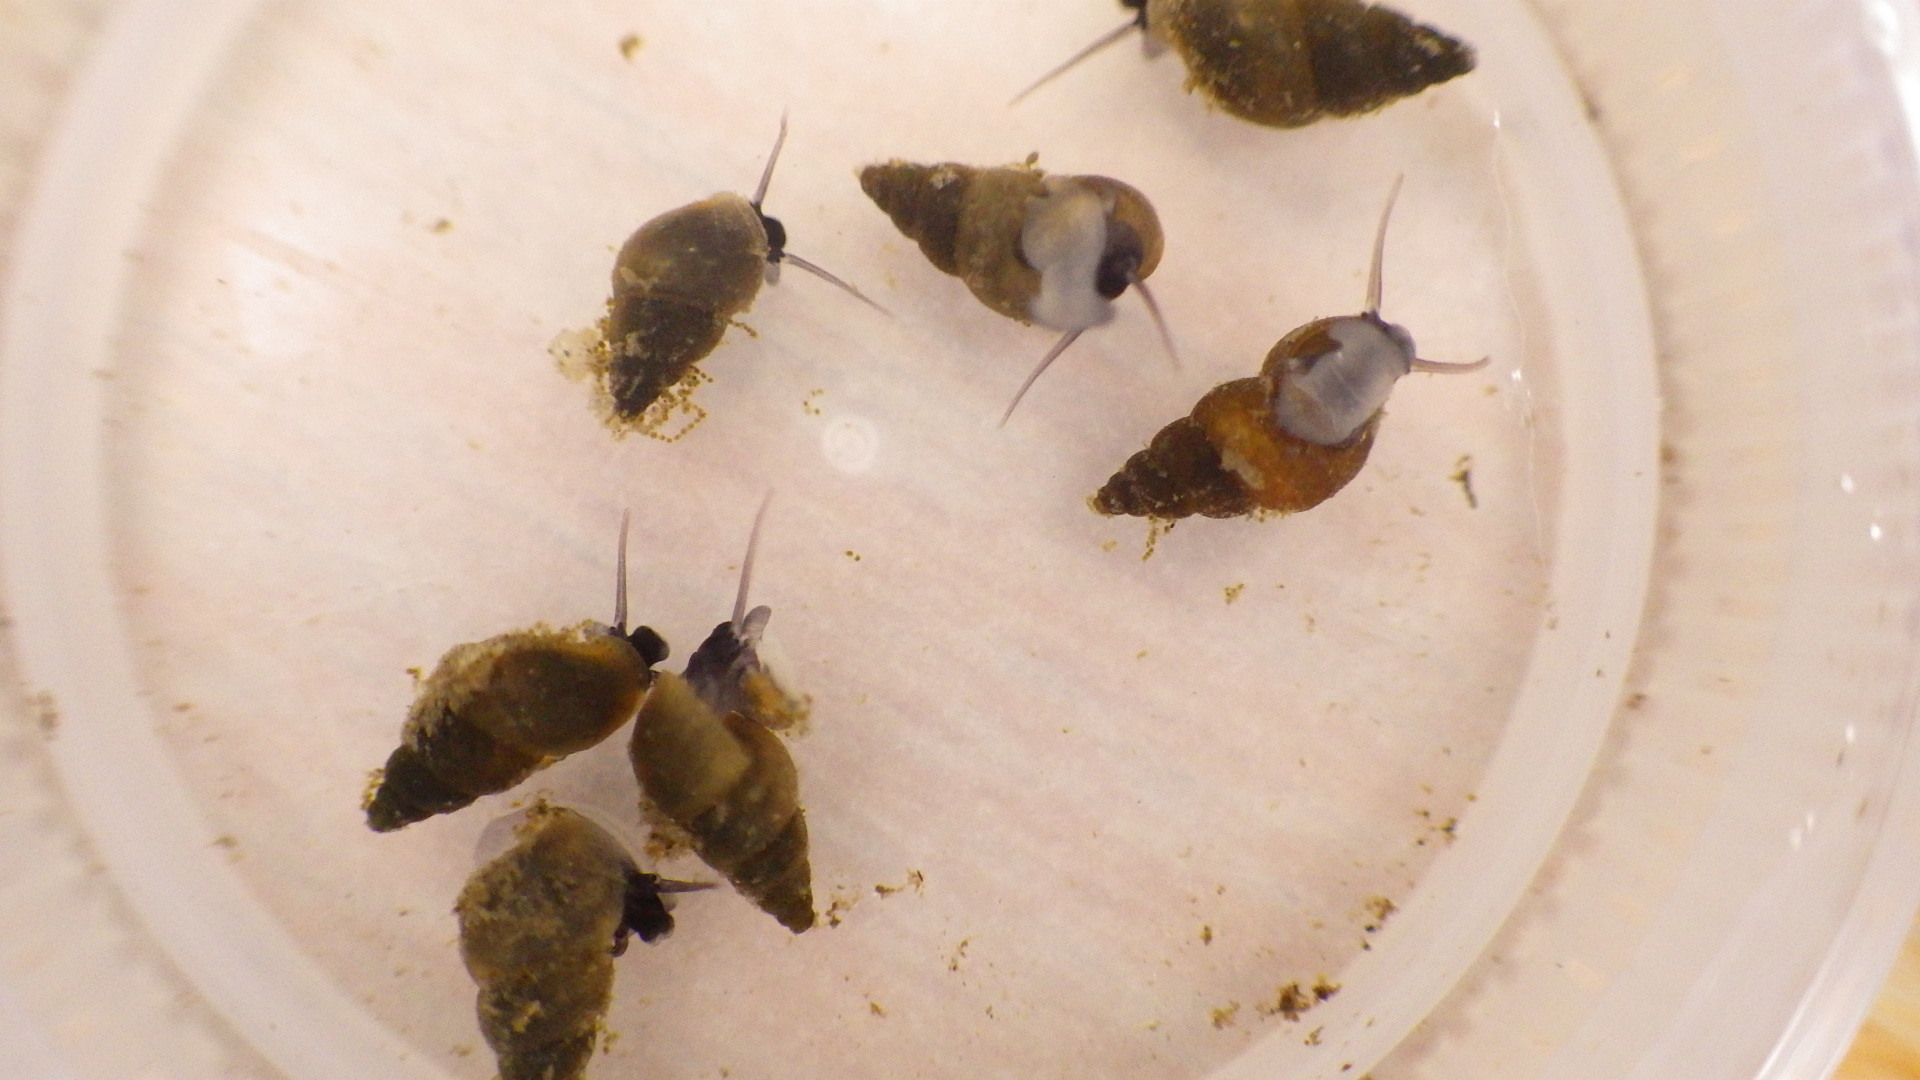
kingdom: Animalia
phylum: Mollusca
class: Gastropoda
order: Littorinimorpha
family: Tateidae
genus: Potamopyrgus
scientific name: Potamopyrgus antipodarum
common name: Jenkins' spire snail
